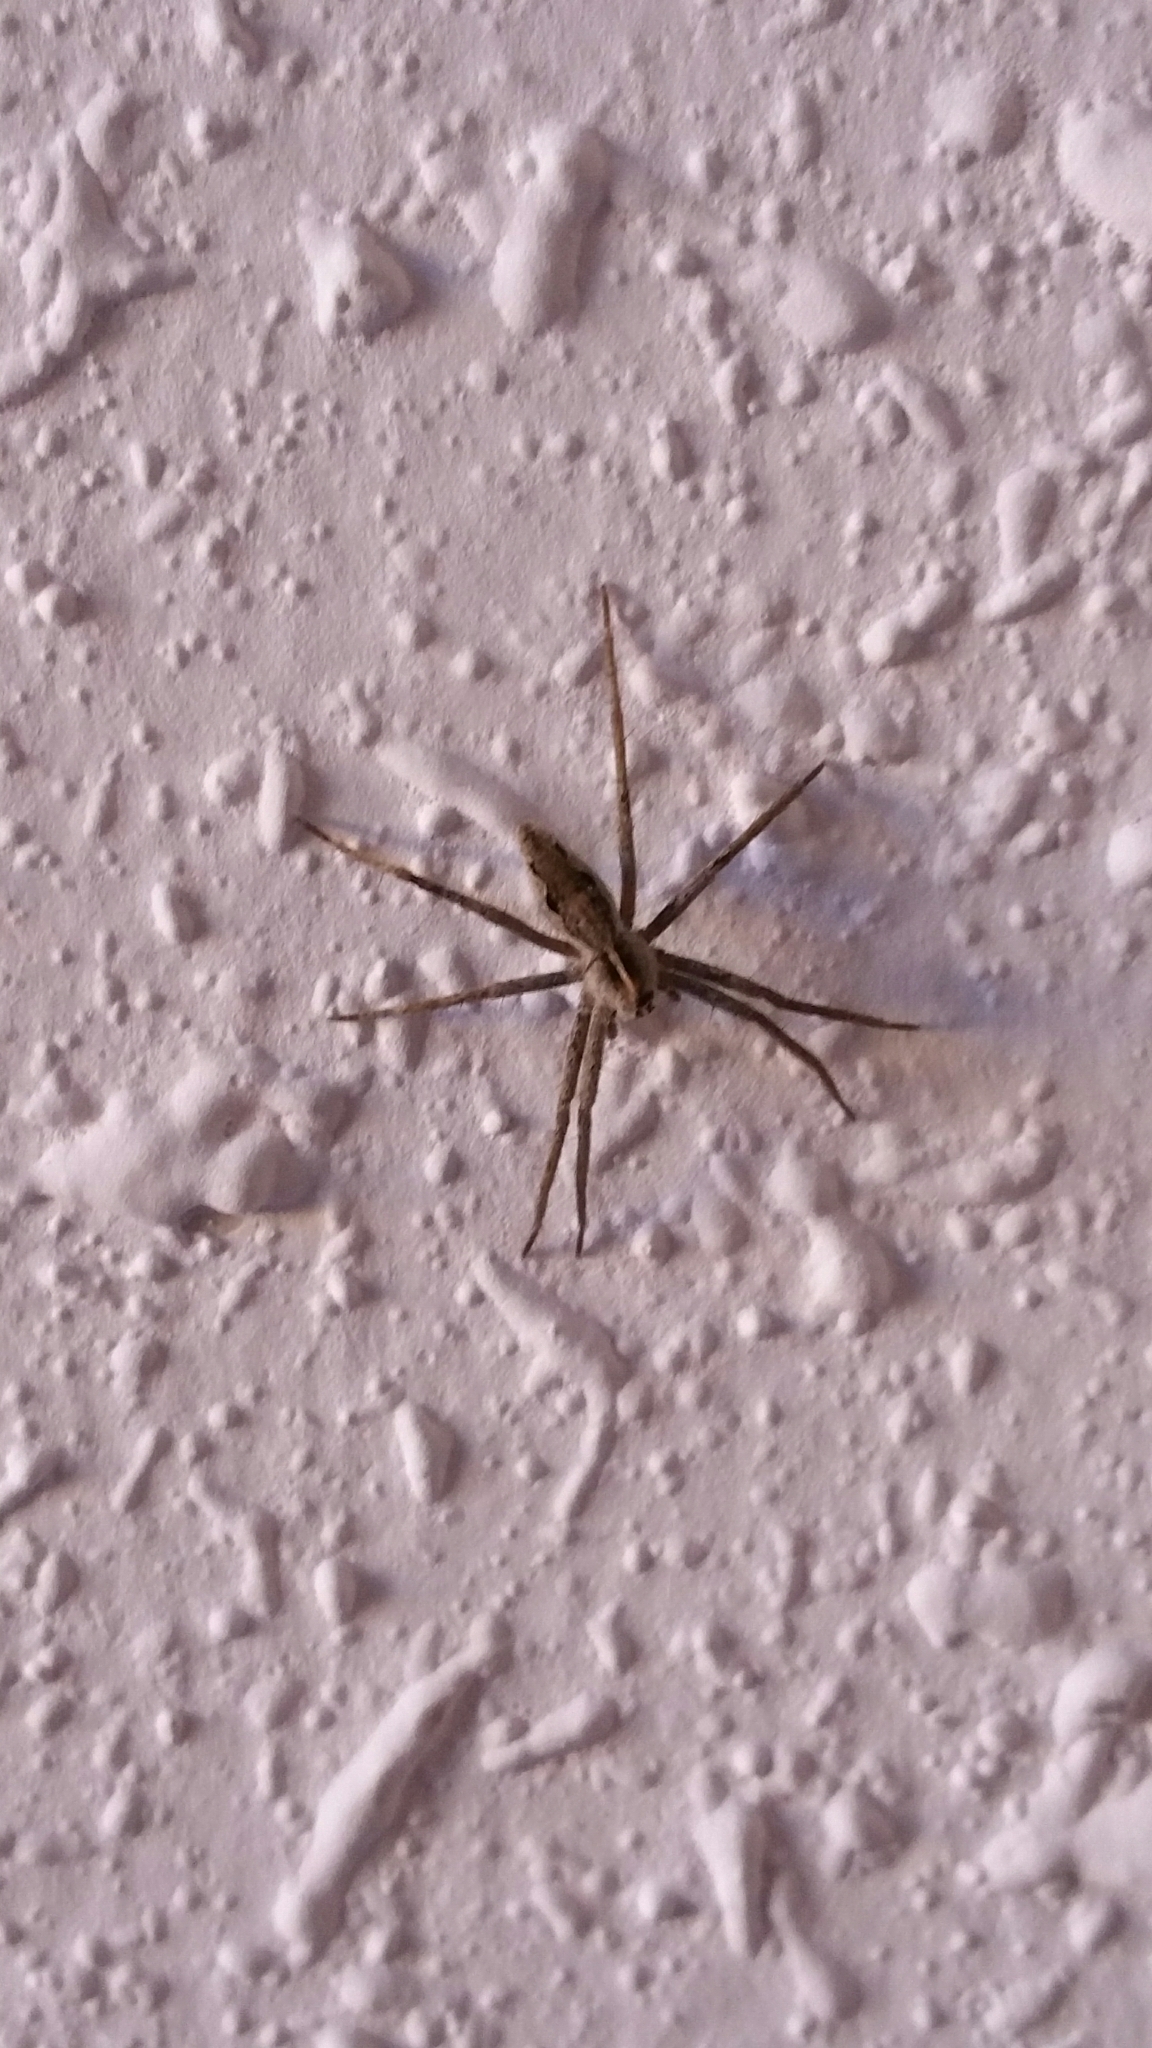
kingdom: Animalia
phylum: Arthropoda
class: Arachnida
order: Araneae
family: Pisauridae
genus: Pisaura
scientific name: Pisaura mirabilis
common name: Tent spider
